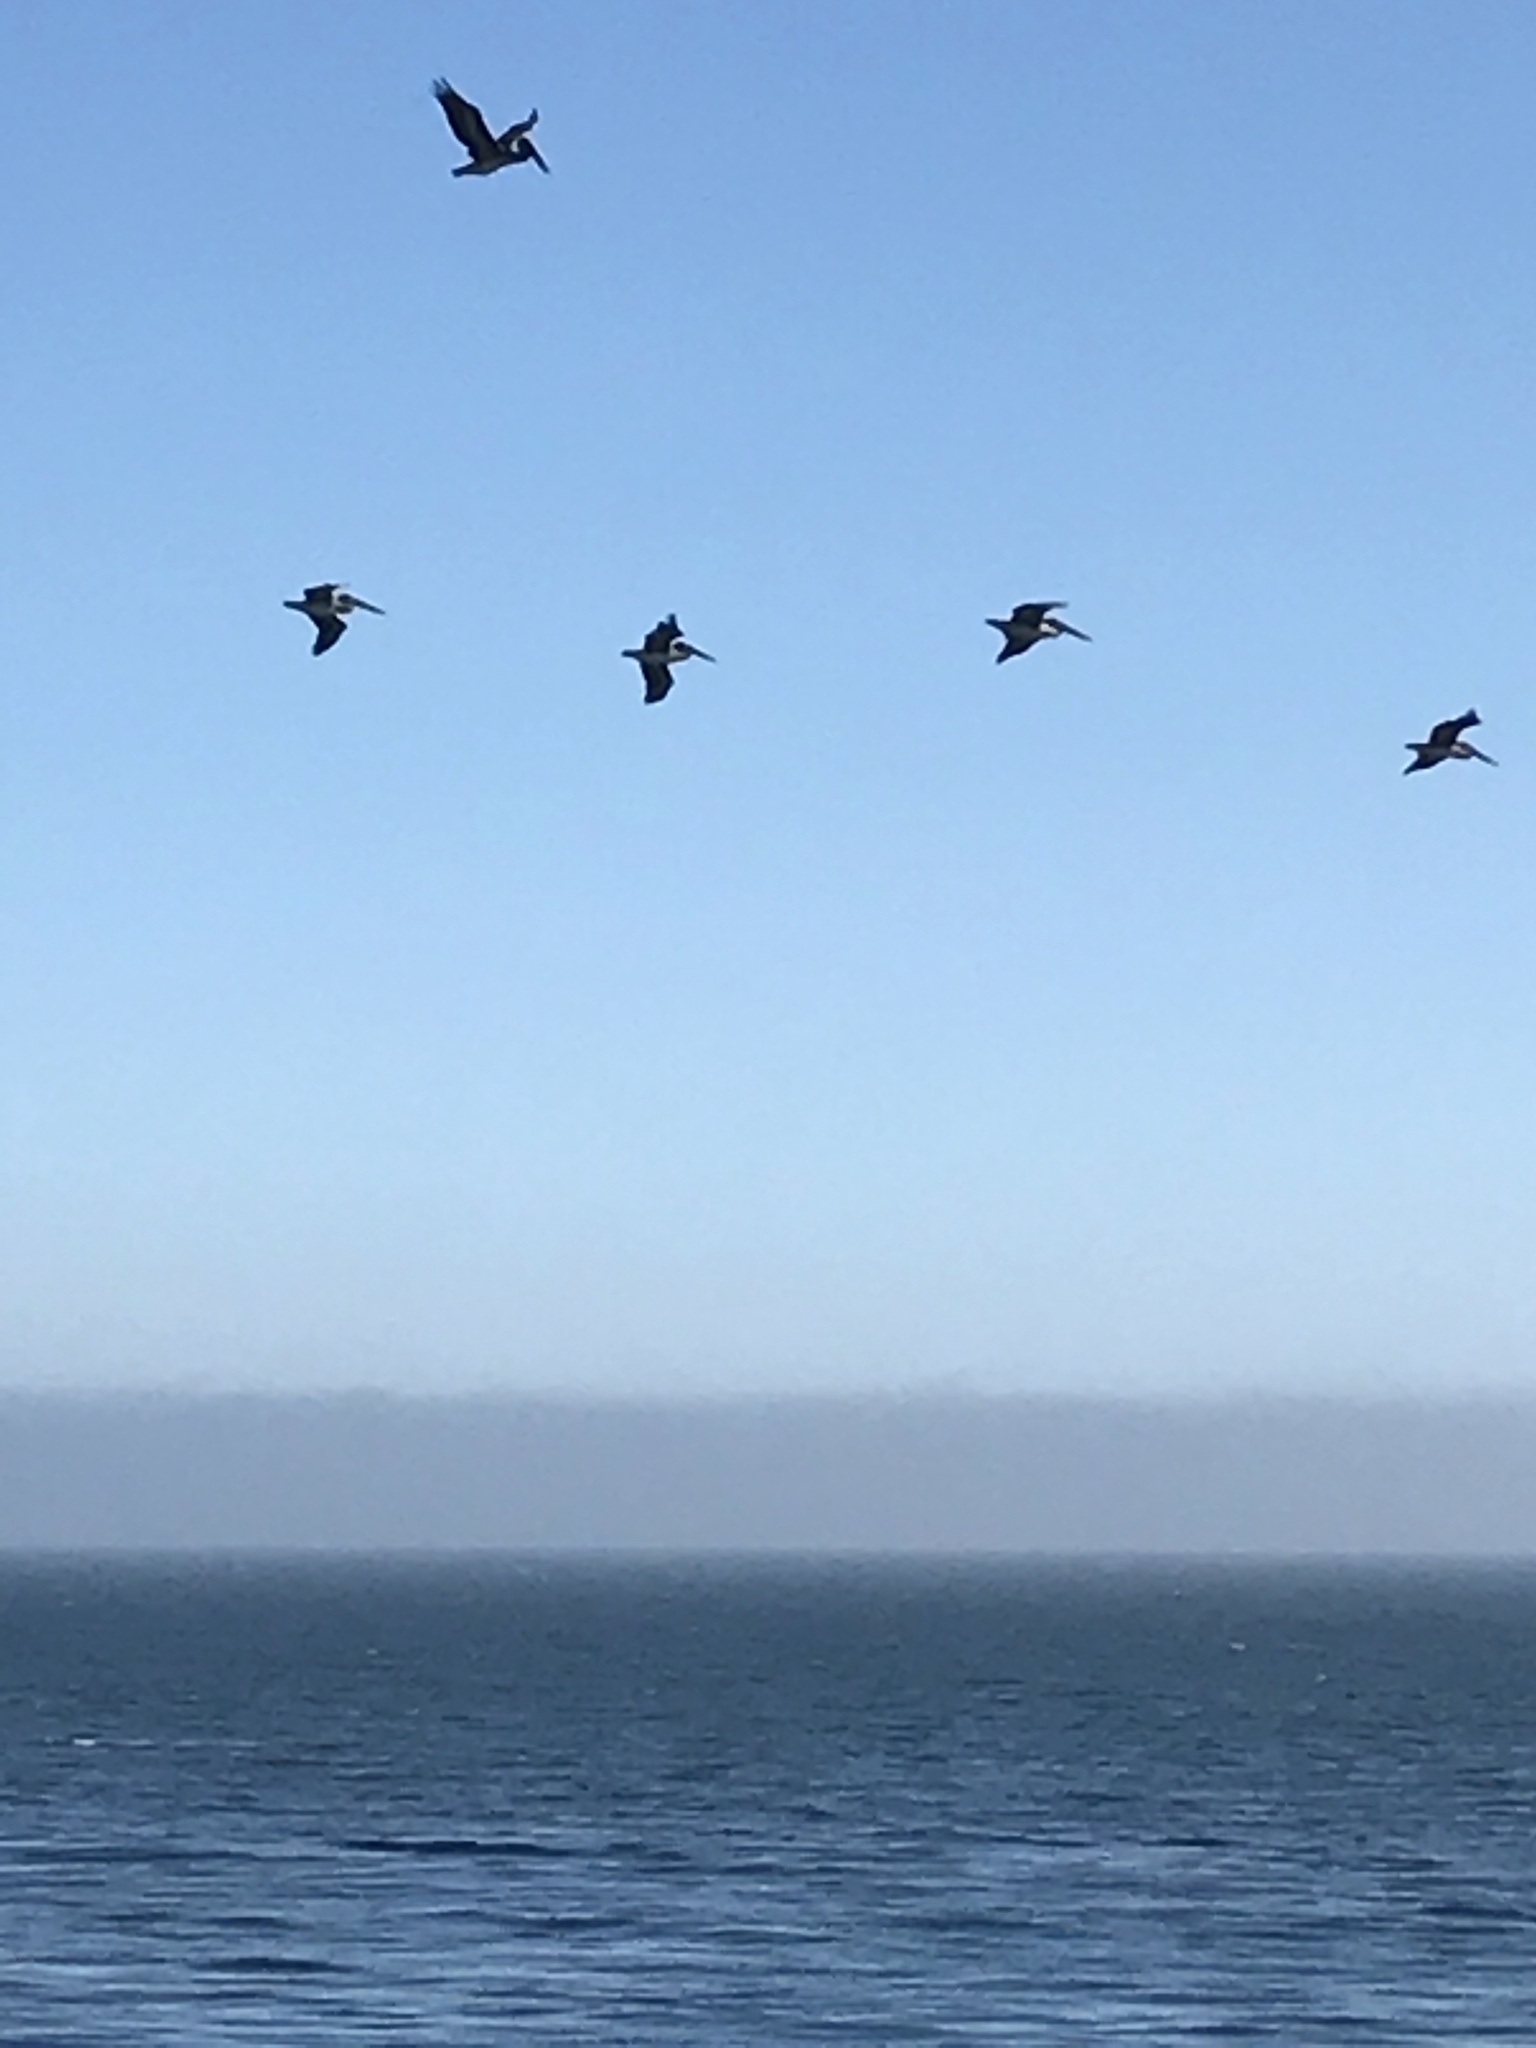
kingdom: Animalia
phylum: Chordata
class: Aves
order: Pelecaniformes
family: Pelecanidae
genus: Pelecanus
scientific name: Pelecanus occidentalis
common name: Brown pelican
